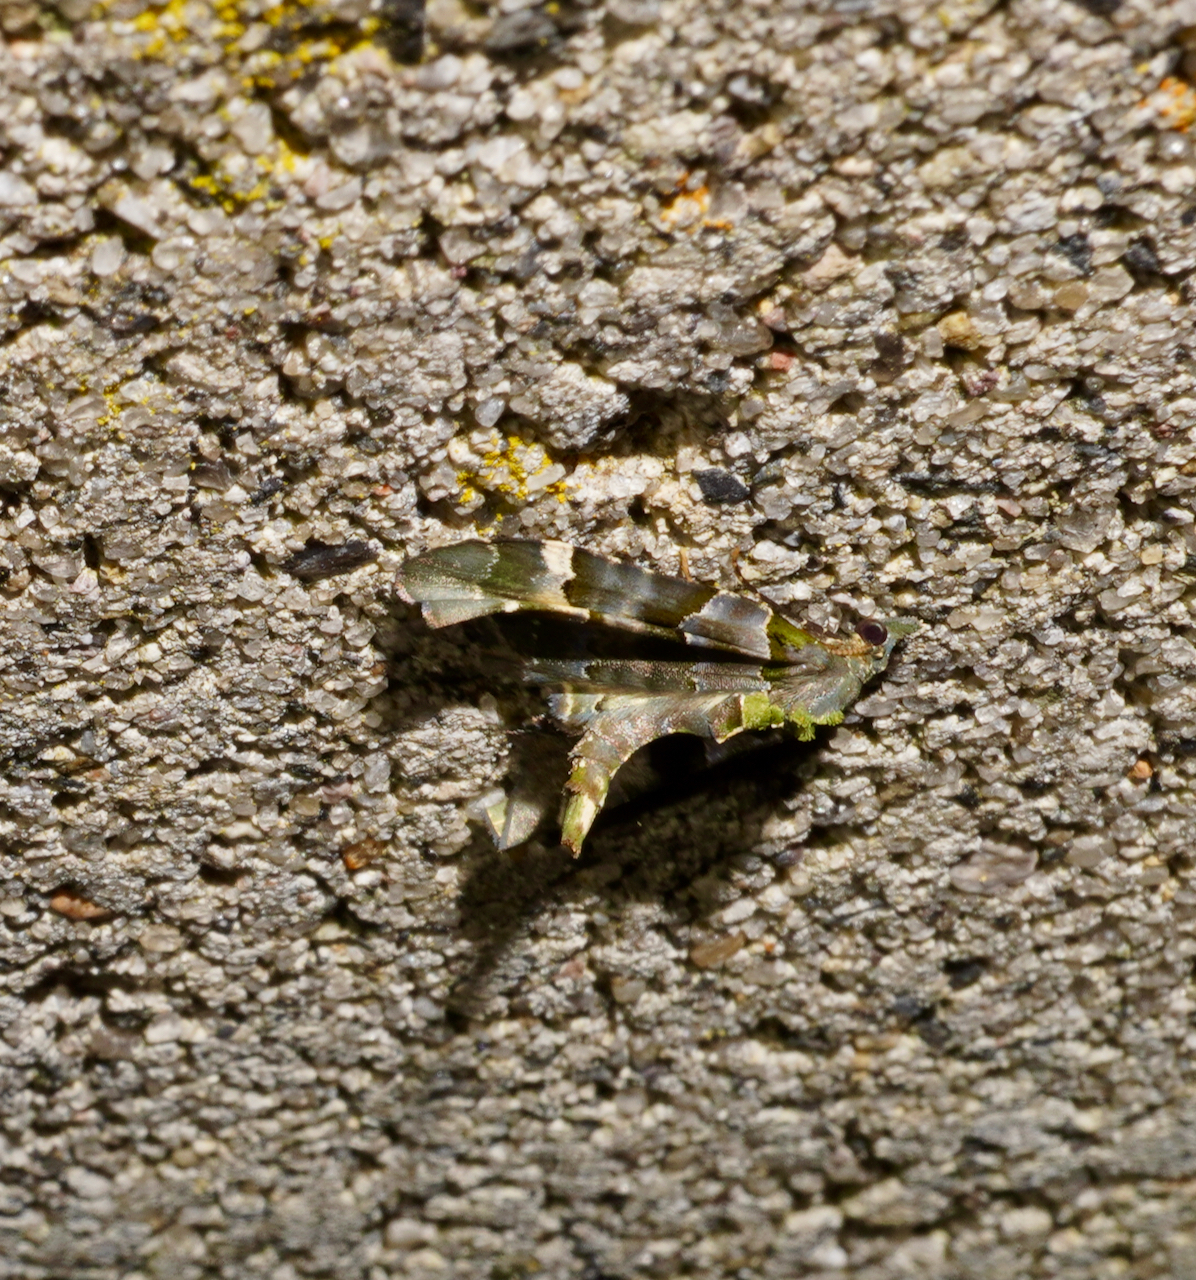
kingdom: Animalia
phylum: Arthropoda
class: Insecta
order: Lepidoptera
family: Geometridae
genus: Elvia
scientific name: Elvia glaucata
